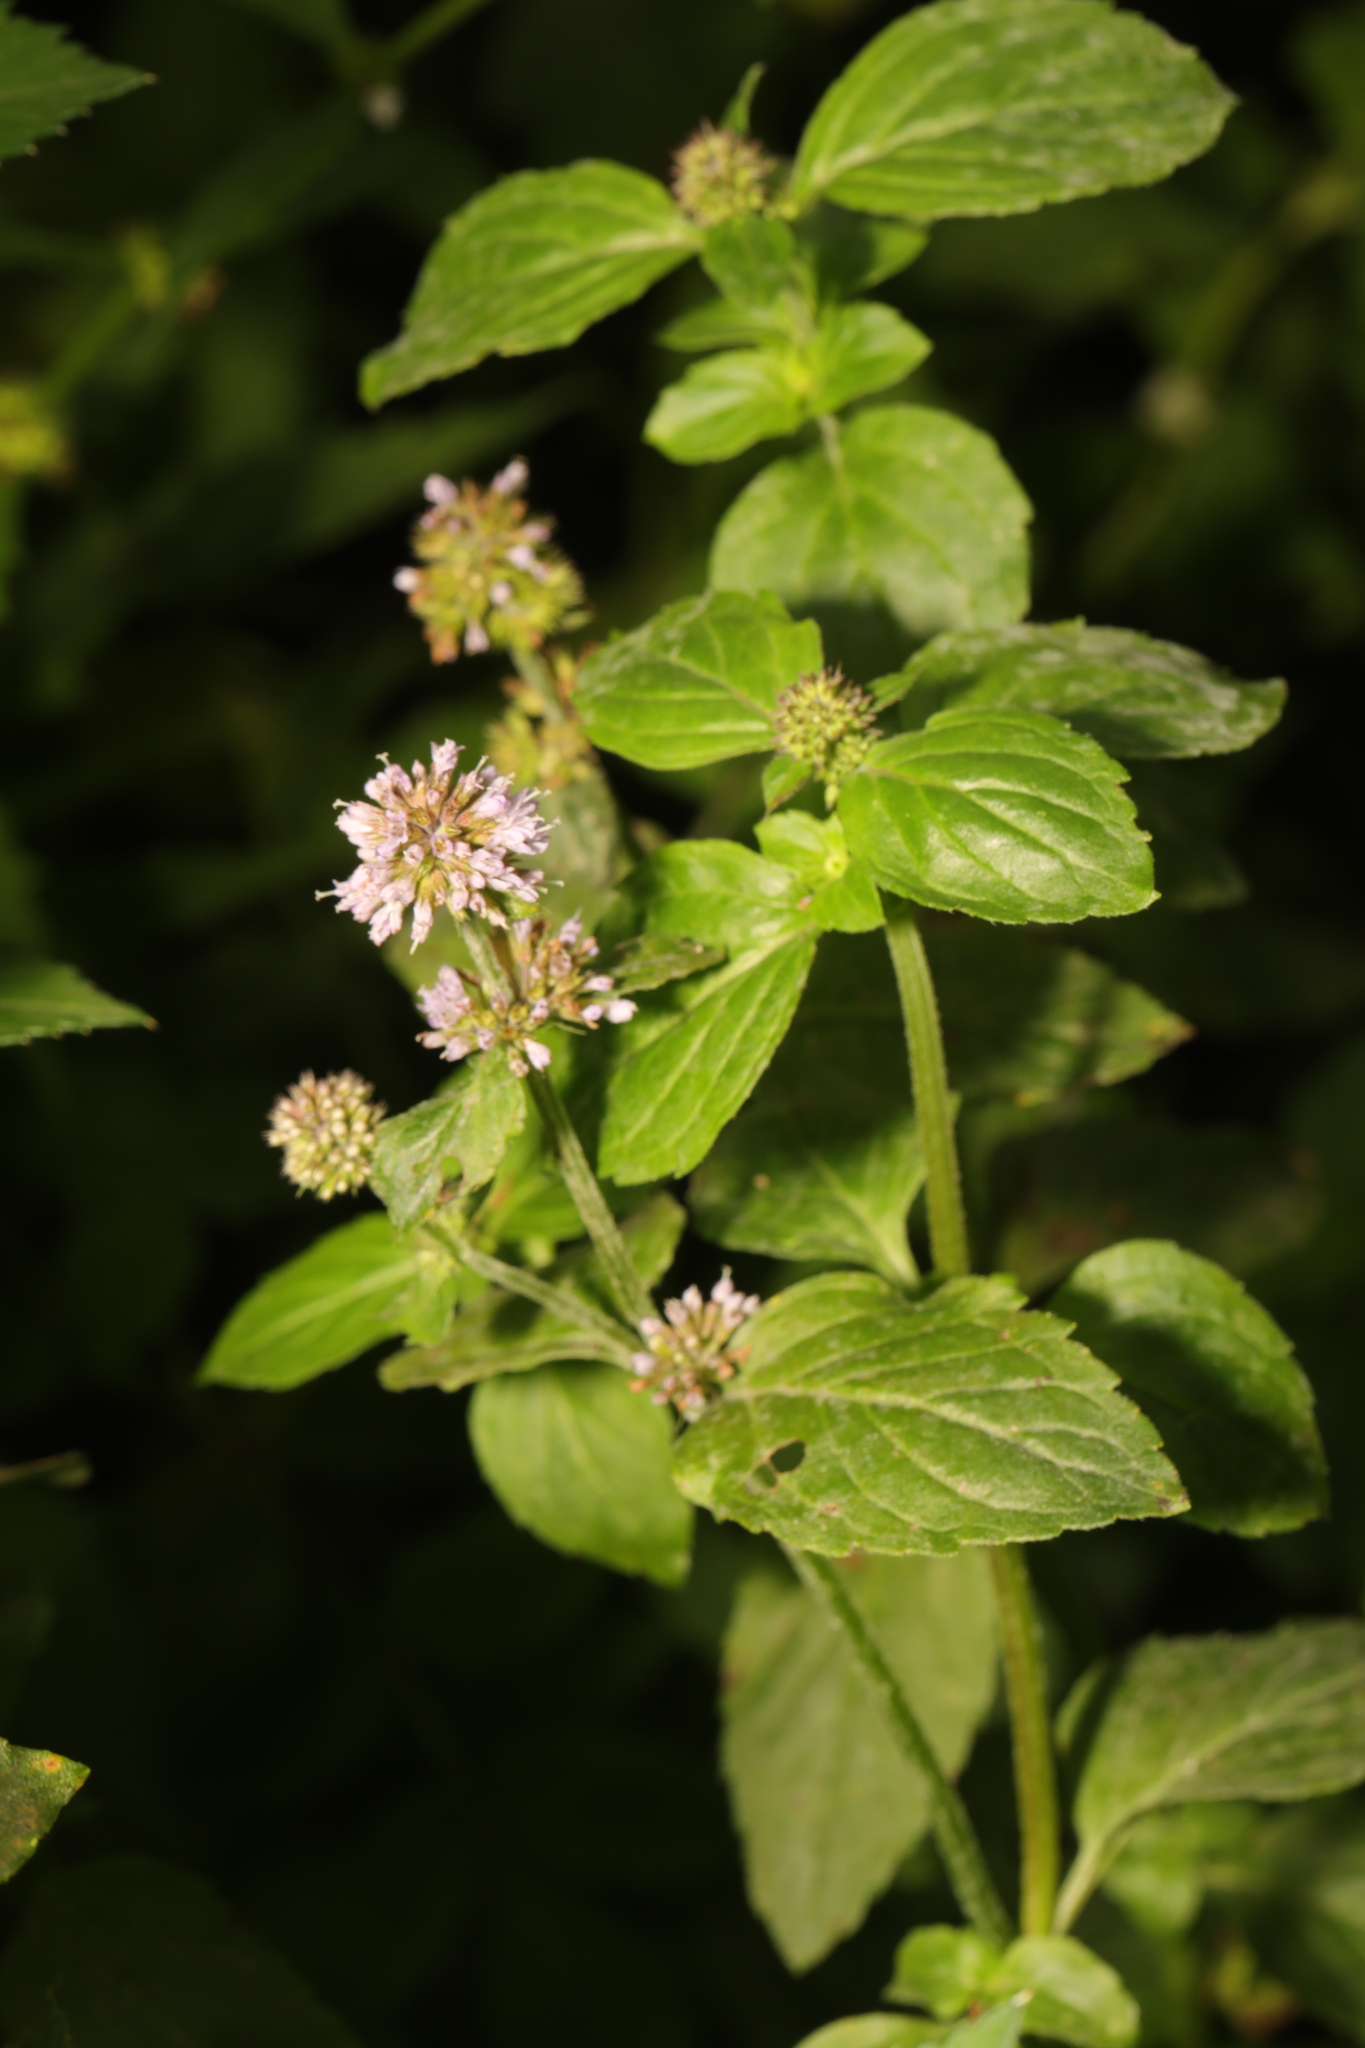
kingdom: Plantae
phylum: Tracheophyta
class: Magnoliopsida
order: Lamiales
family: Lamiaceae
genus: Mentha
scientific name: Mentha aquatica
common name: Water mint
